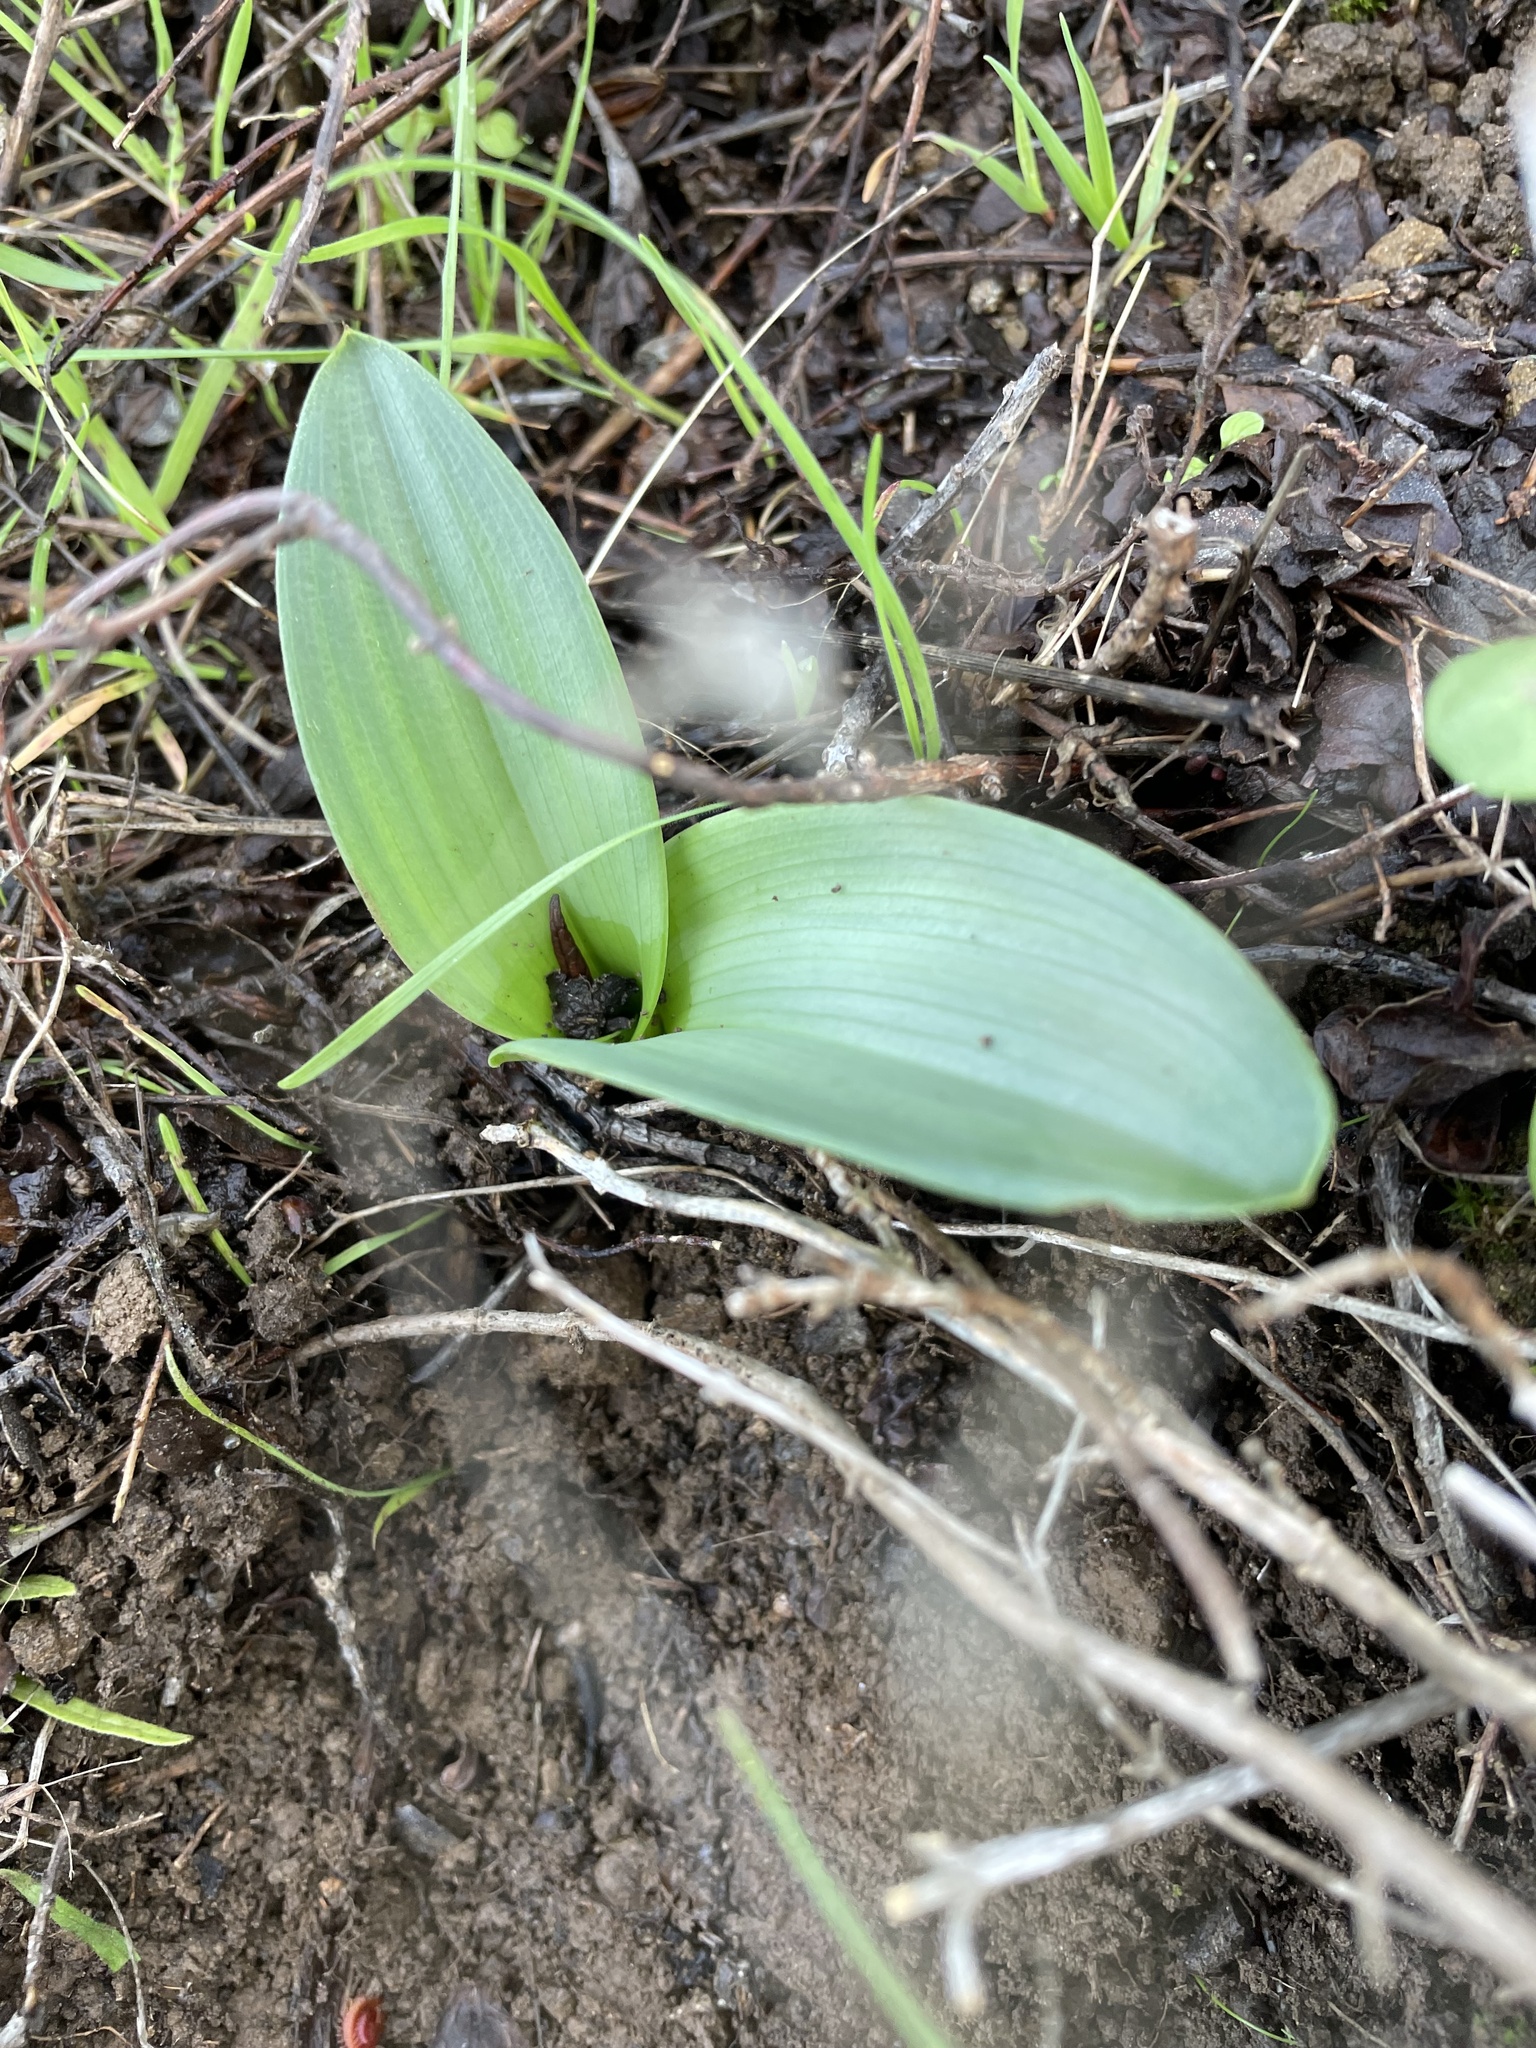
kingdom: Plantae
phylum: Tracheophyta
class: Liliopsida
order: Asparagales
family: Orchidaceae
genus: Platanthera
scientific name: Platanthera elegans
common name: Coast piperia
